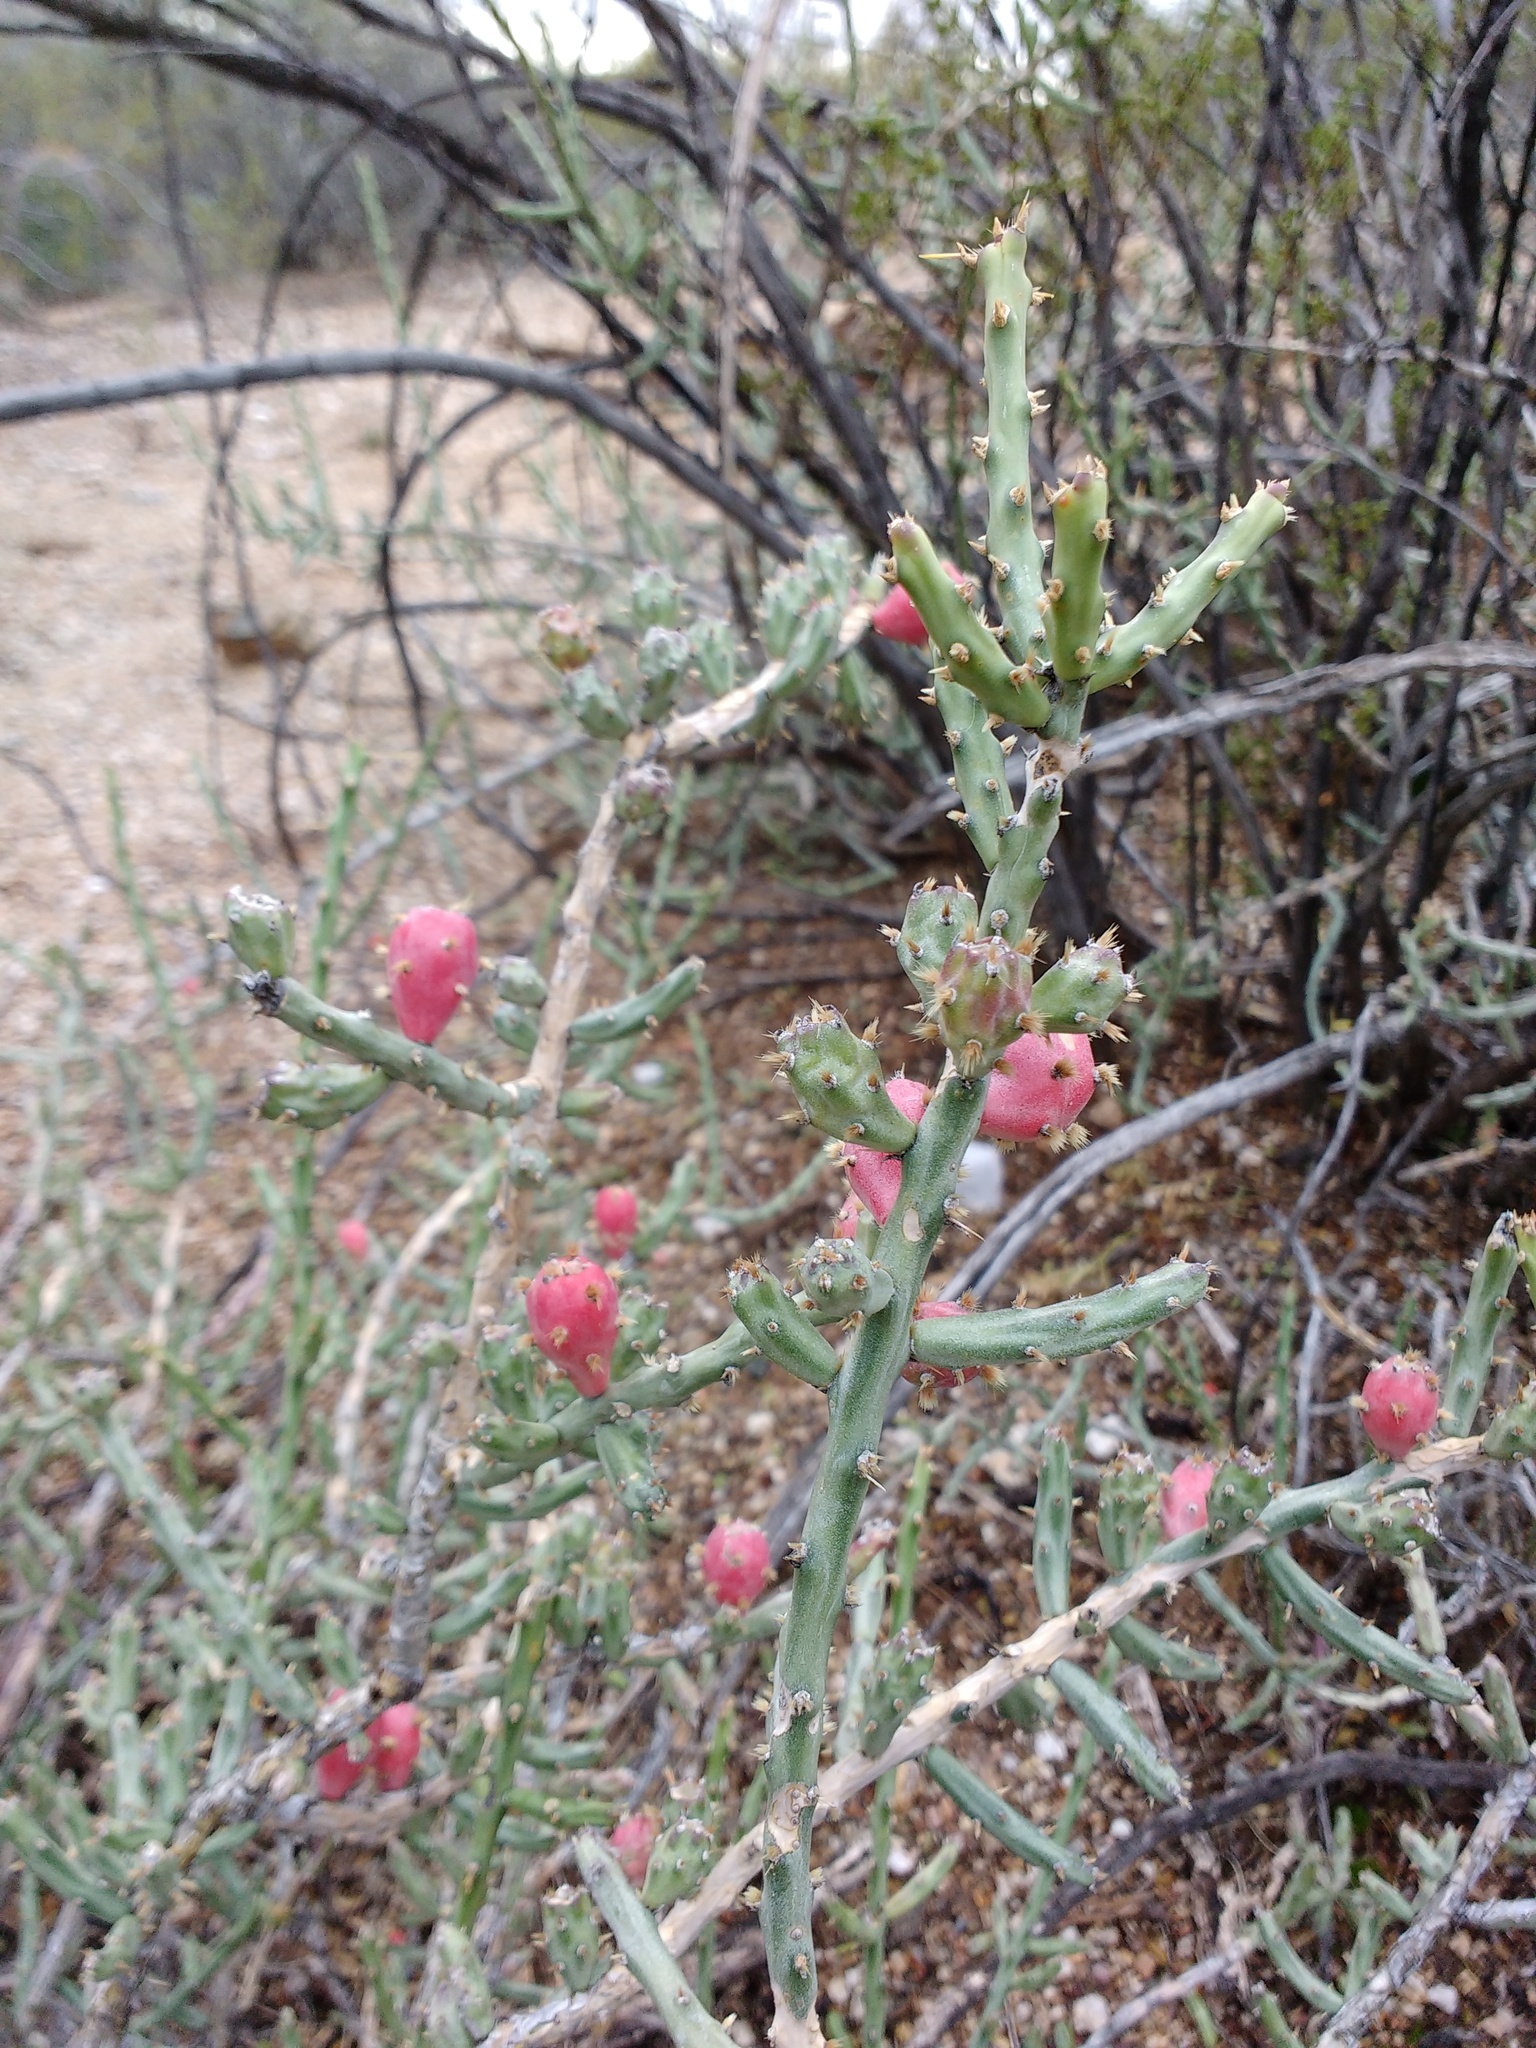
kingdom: Plantae
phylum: Tracheophyta
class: Magnoliopsida
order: Caryophyllales
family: Cactaceae
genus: Cylindropuntia
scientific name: Cylindropuntia leptocaulis
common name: Christmas cactus
